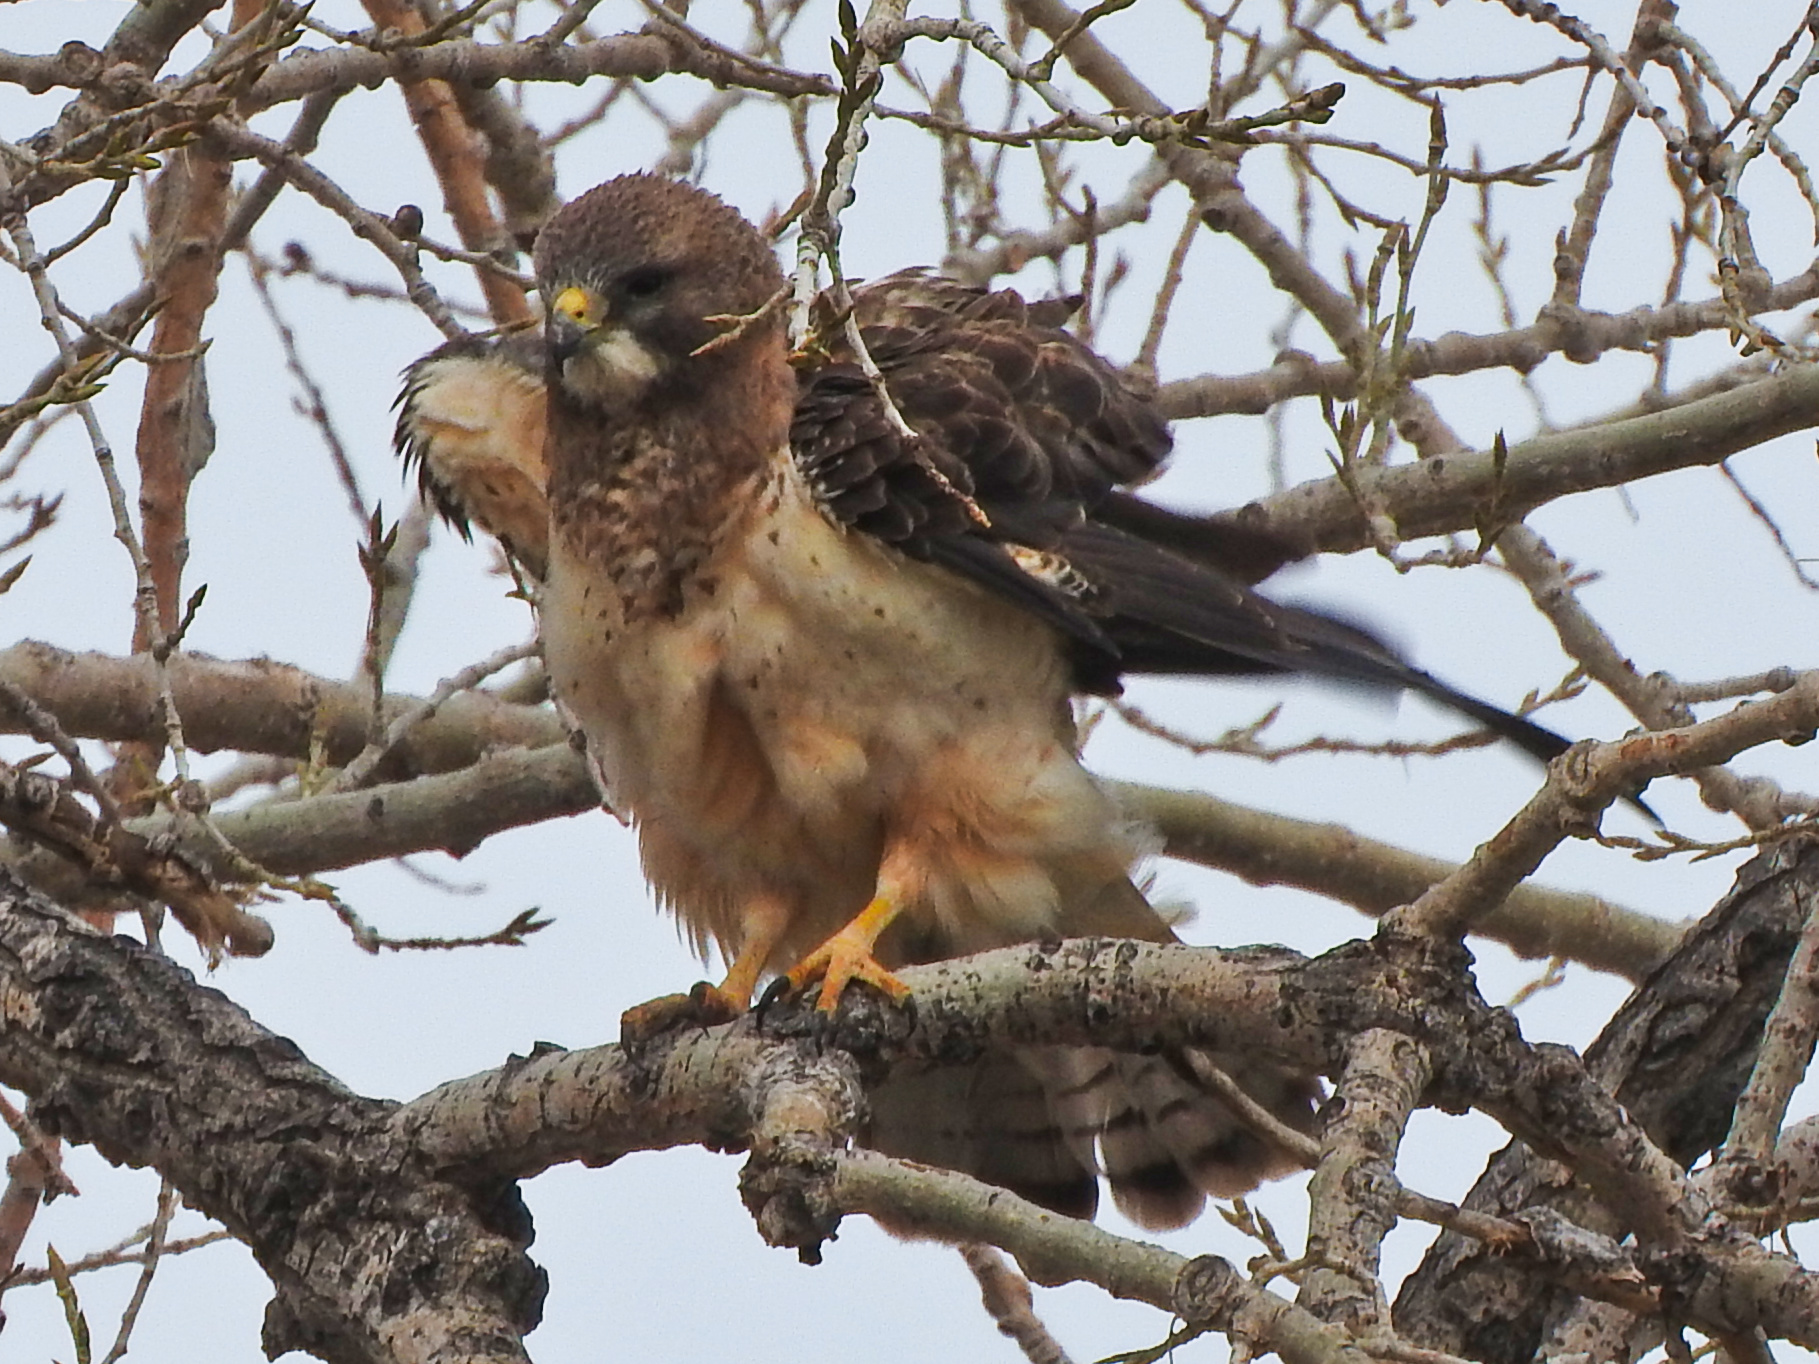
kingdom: Animalia
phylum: Chordata
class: Aves
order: Accipitriformes
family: Accipitridae
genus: Buteo
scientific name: Buteo swainsoni
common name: Swainson's hawk
